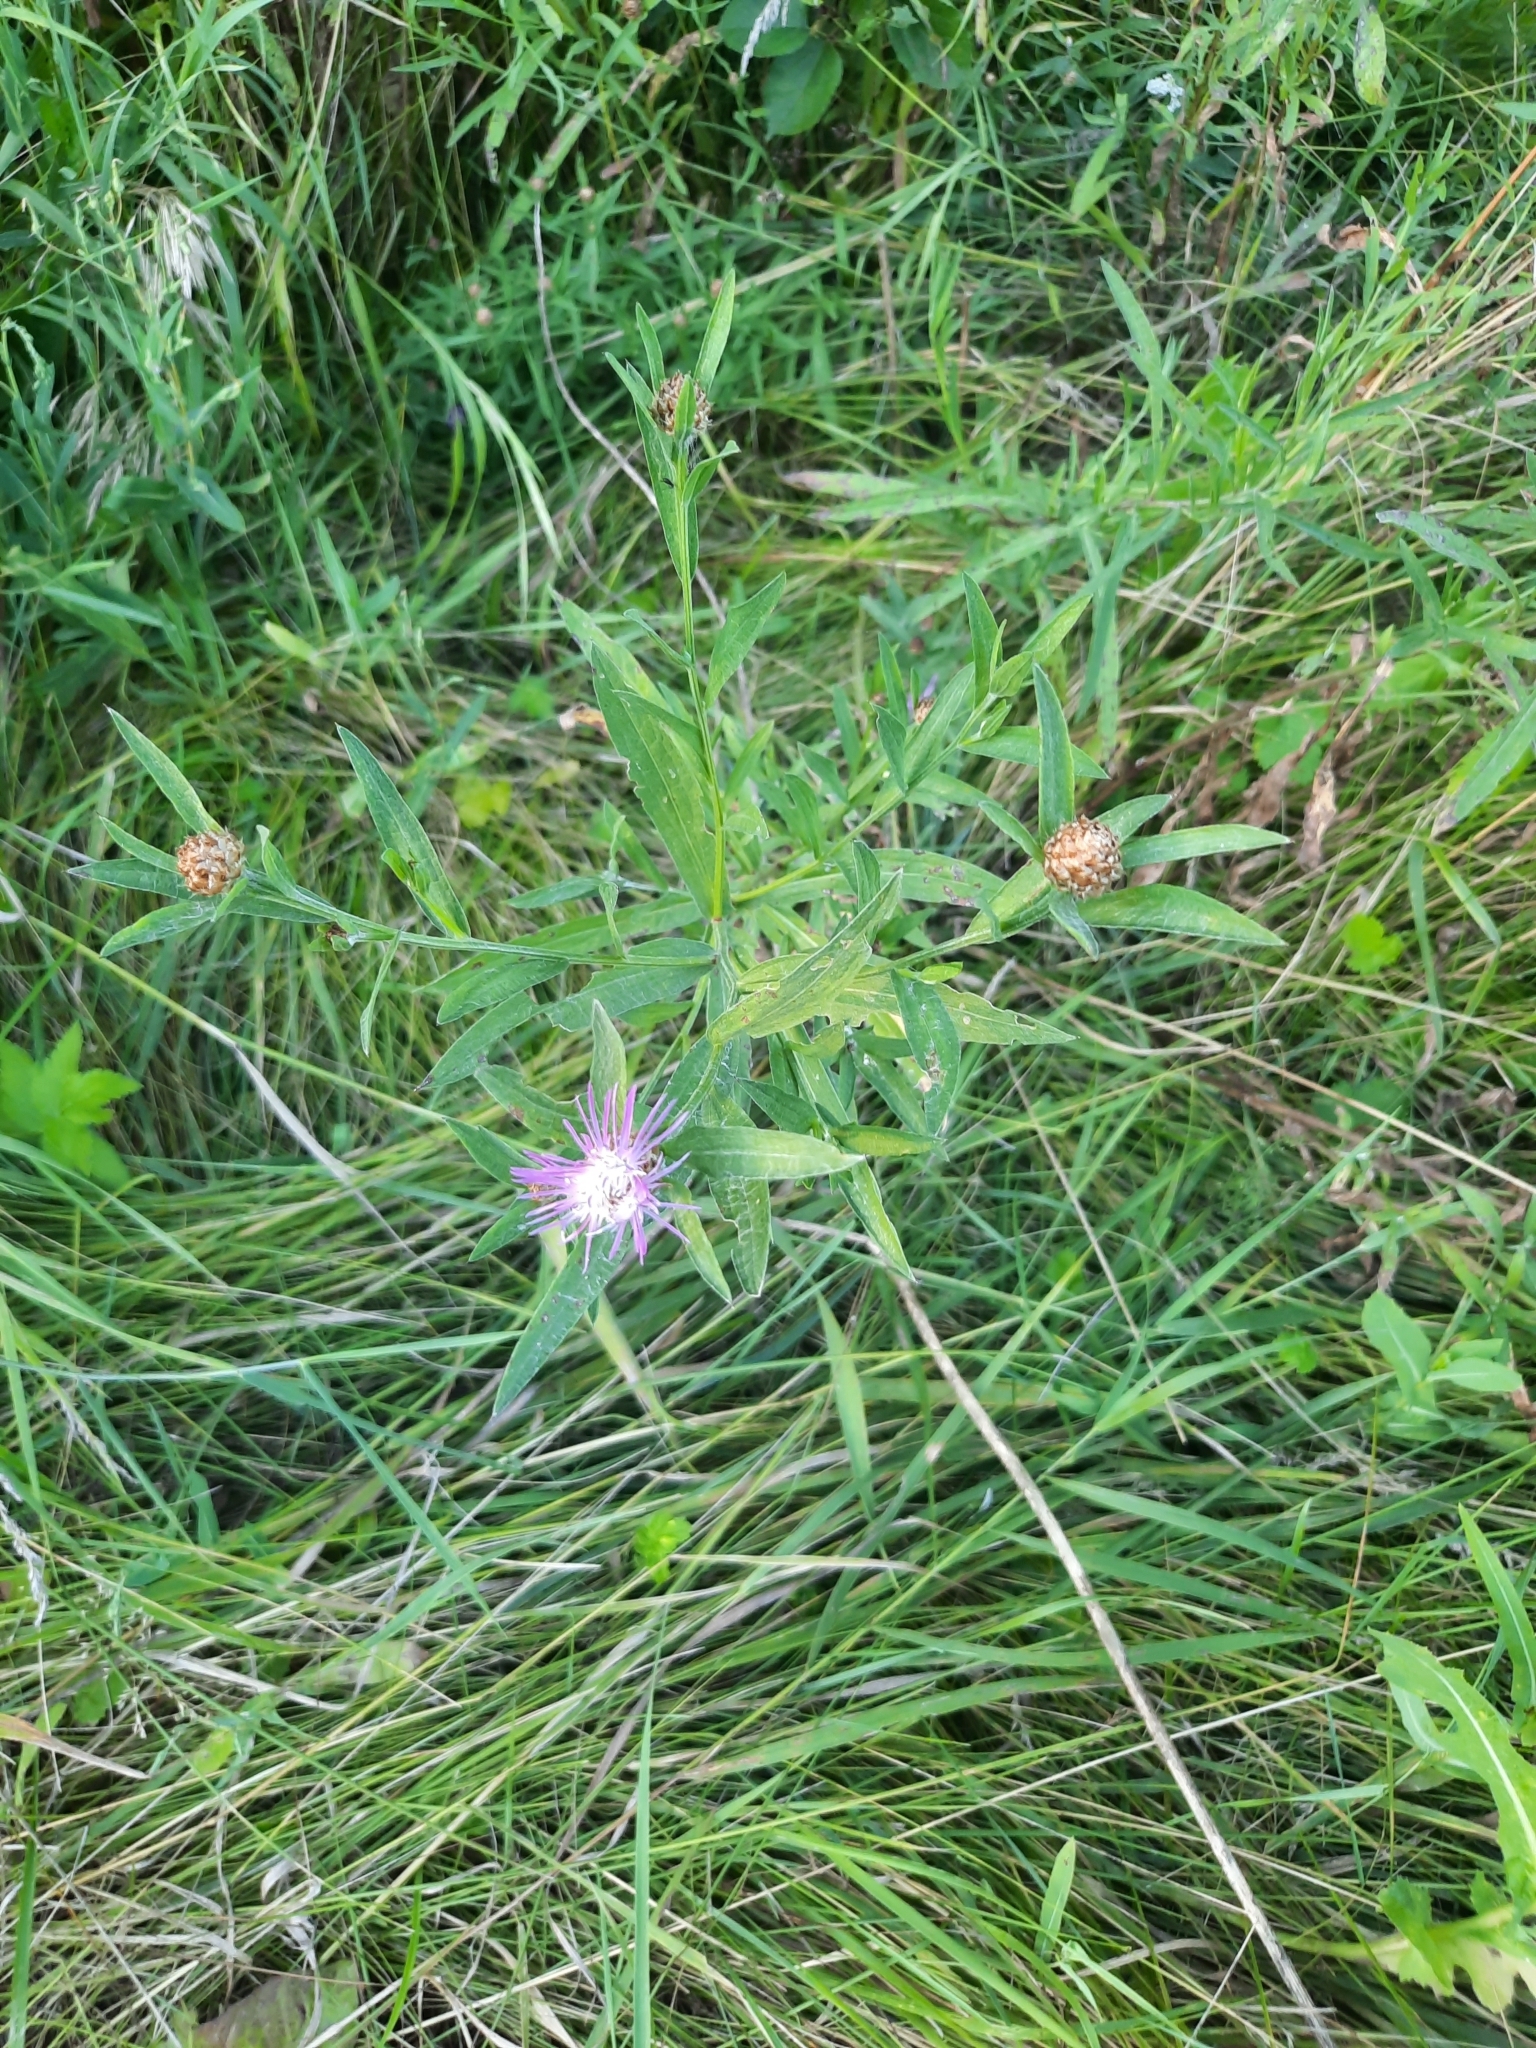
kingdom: Plantae
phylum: Tracheophyta
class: Magnoliopsida
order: Asterales
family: Asteraceae
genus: Centaurea
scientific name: Centaurea jacea
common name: Brown knapweed
